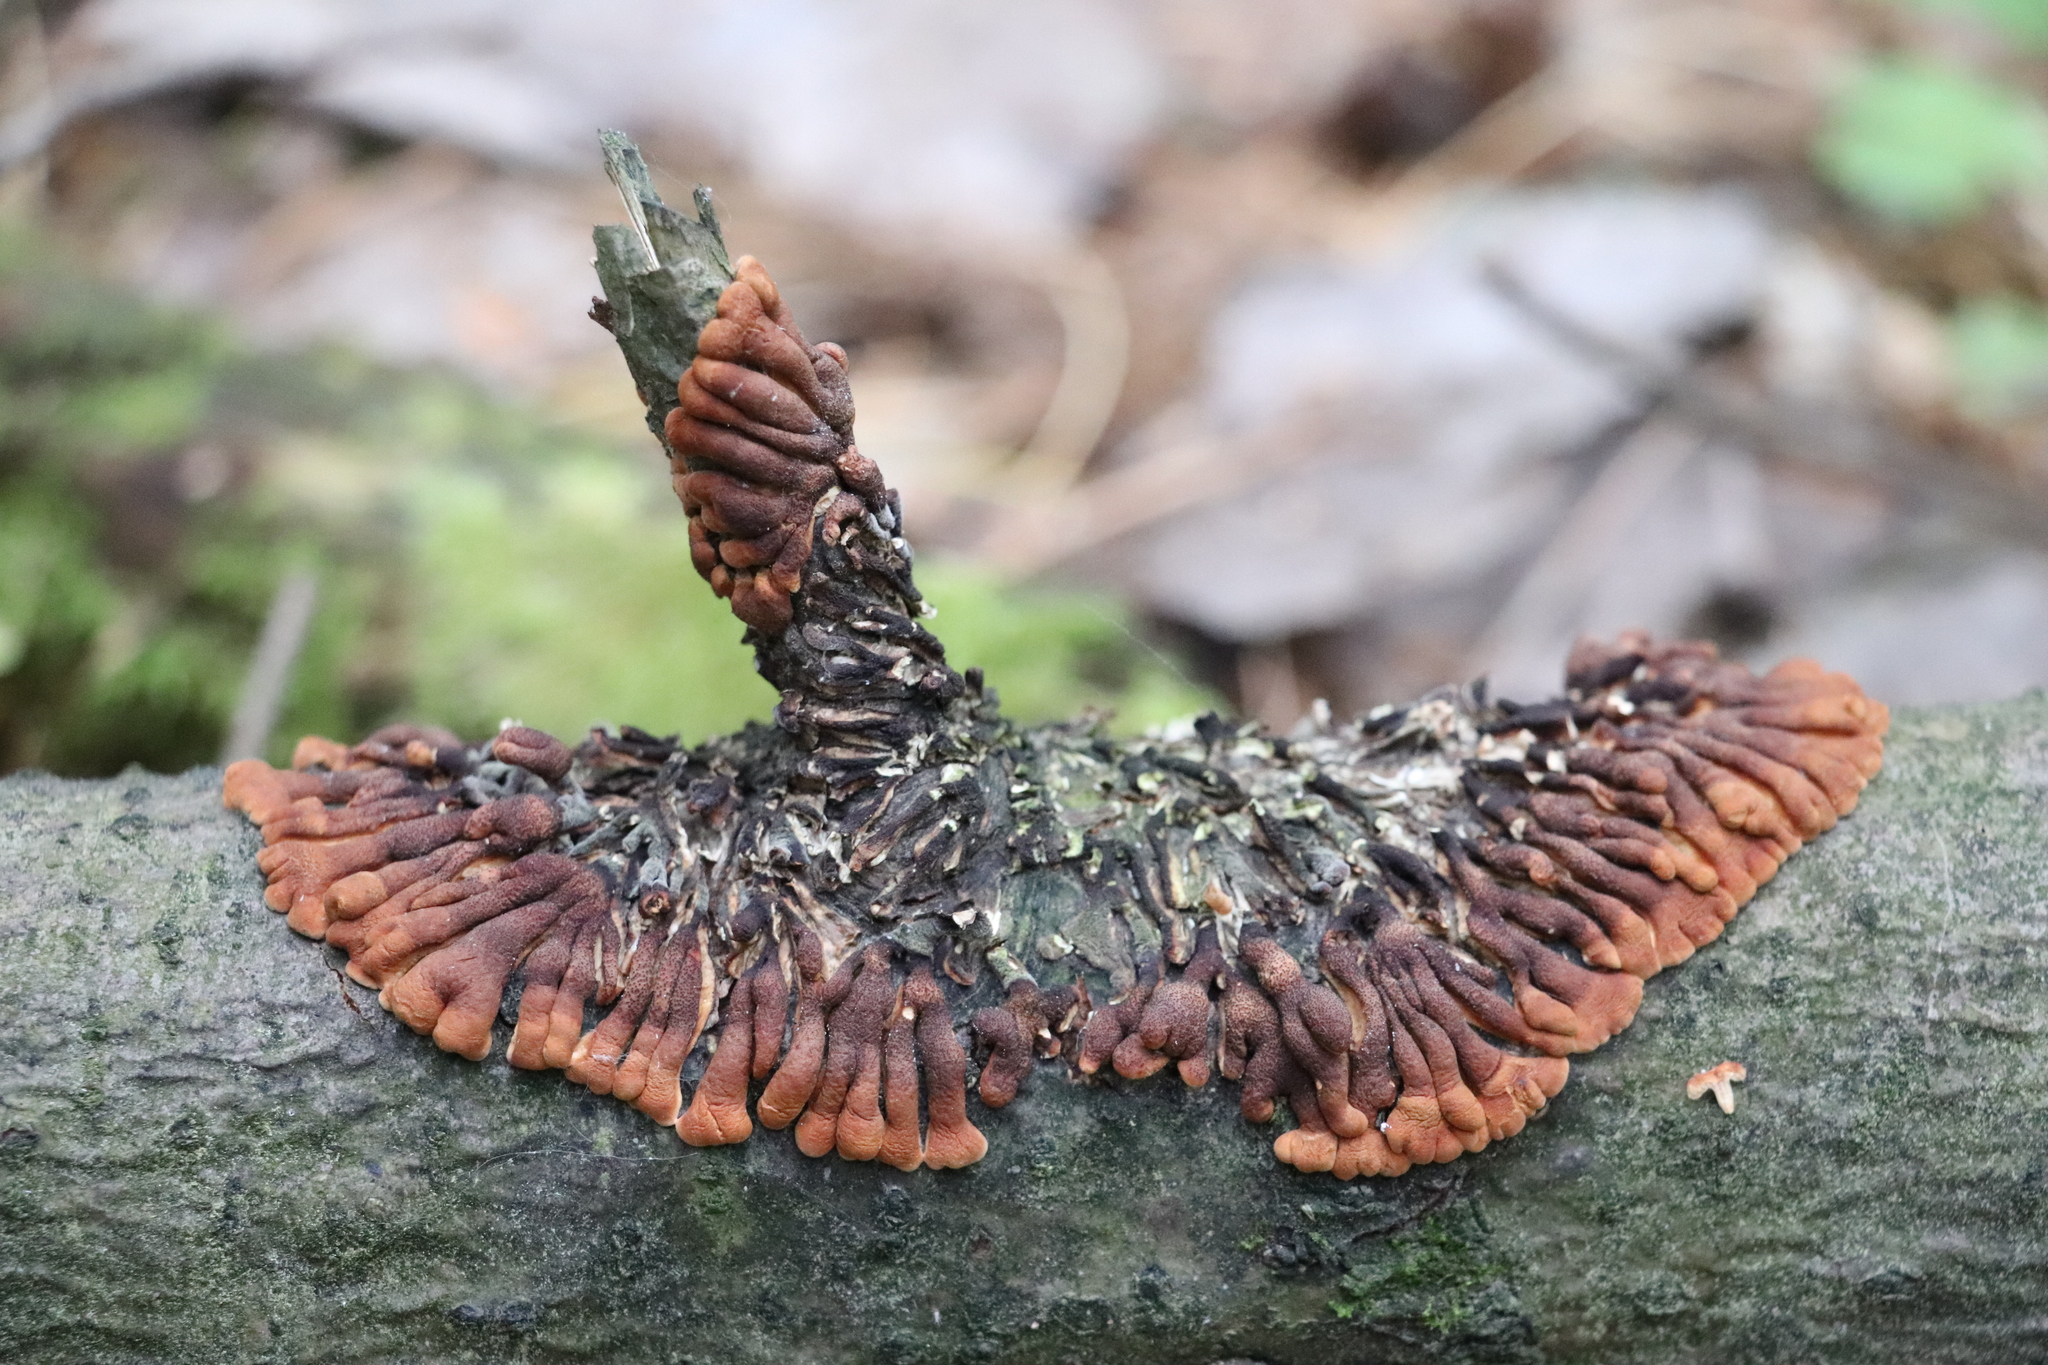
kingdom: Fungi
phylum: Ascomycota
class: Sordariomycetes
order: Hypocreales
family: Hypocreaceae
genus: Hypocreopsis
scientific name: Hypocreopsis lichenoides
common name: Willow gloves
